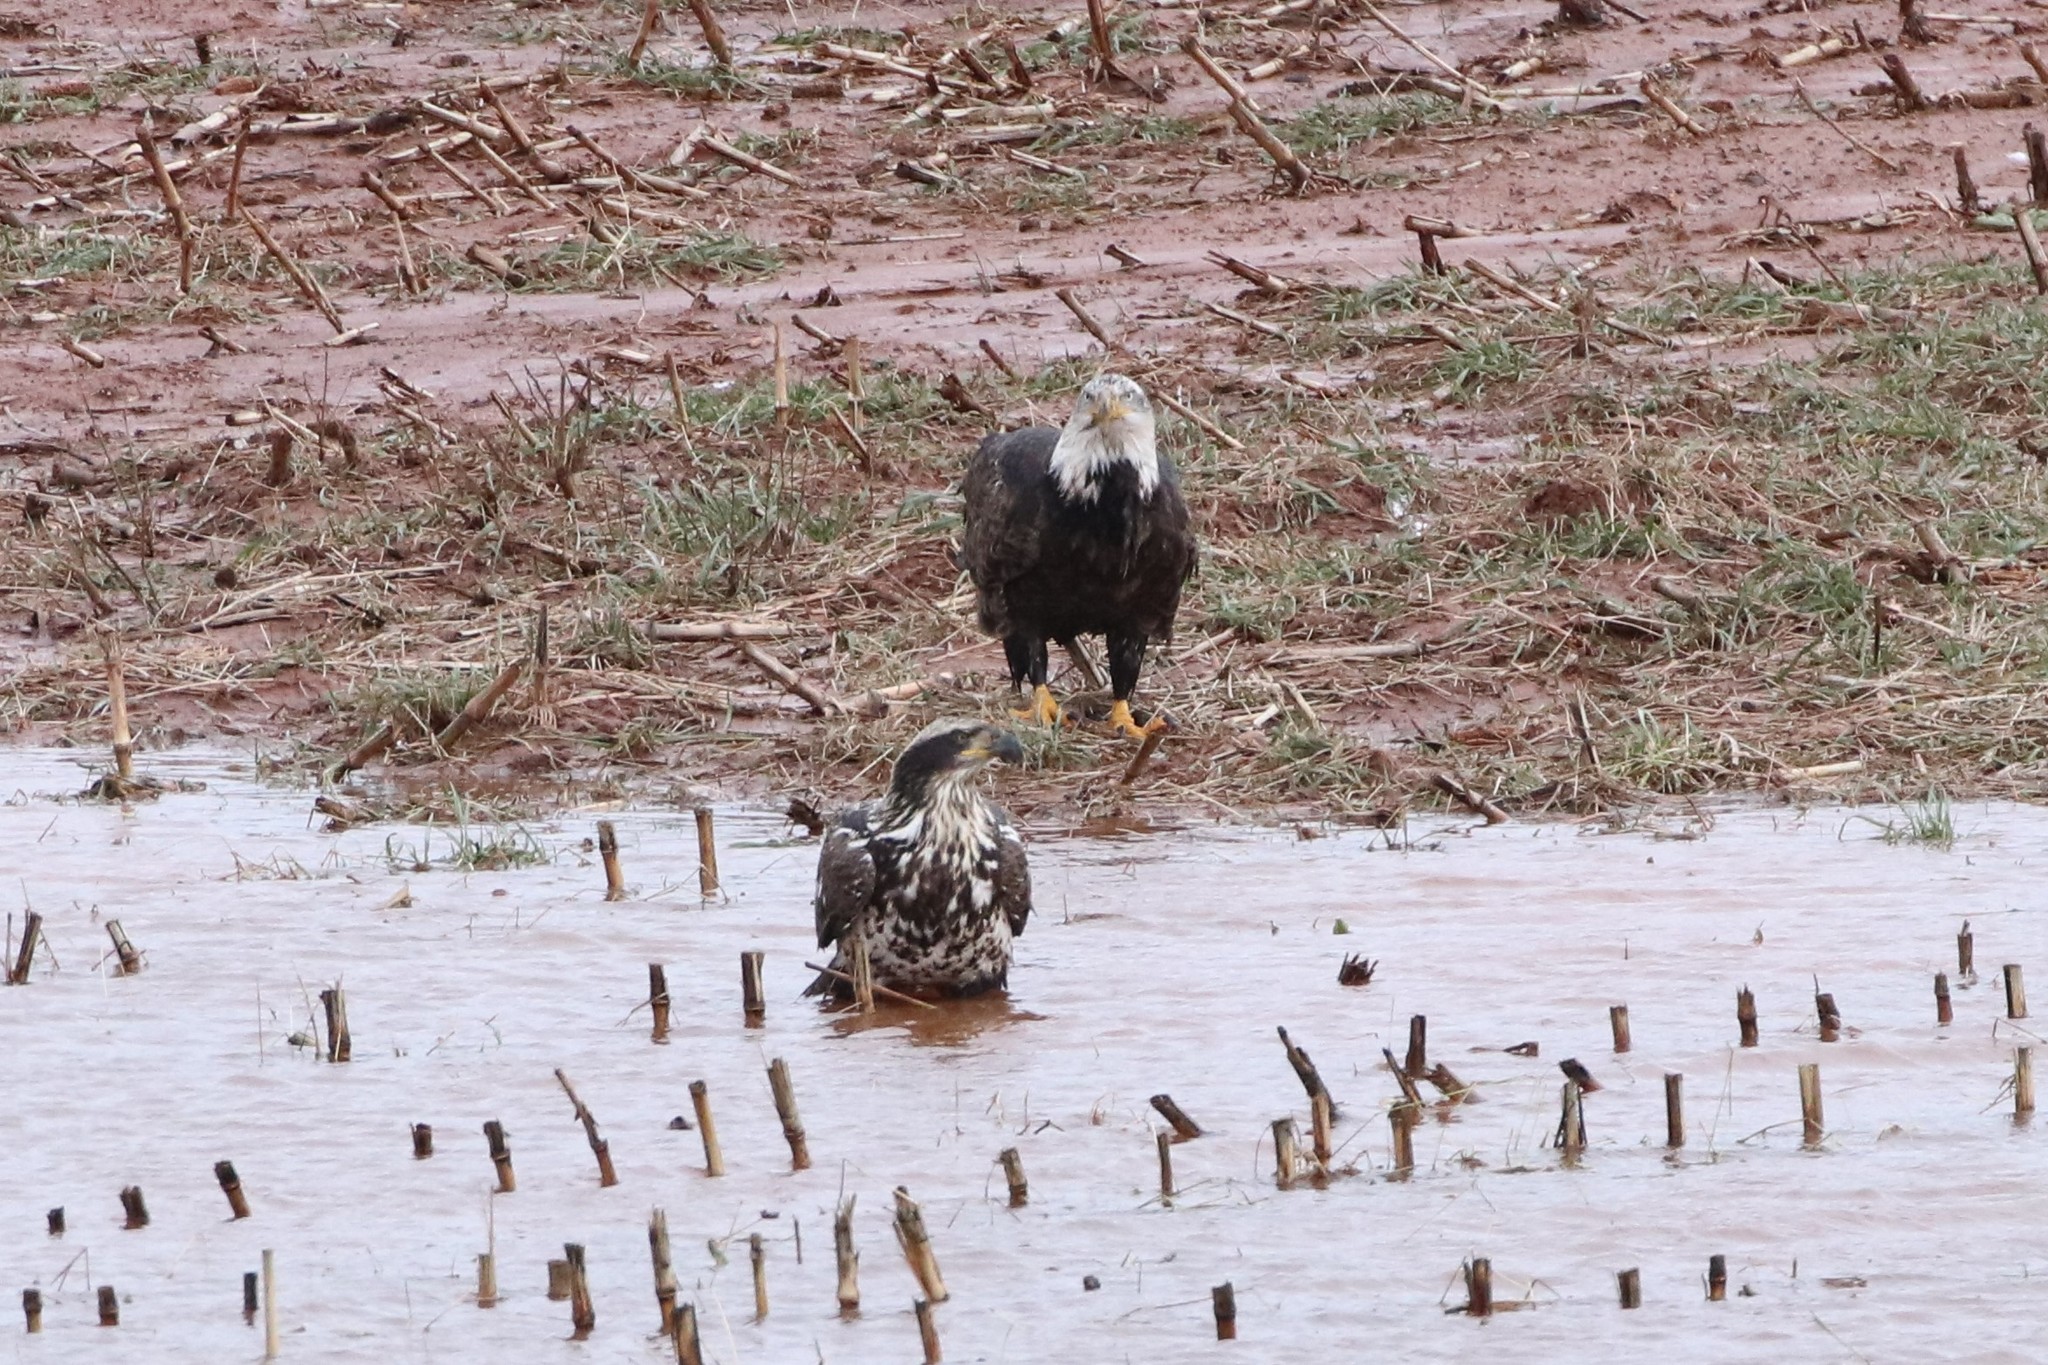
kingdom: Animalia
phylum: Chordata
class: Aves
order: Accipitriformes
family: Accipitridae
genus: Haliaeetus
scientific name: Haliaeetus leucocephalus
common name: Bald eagle
